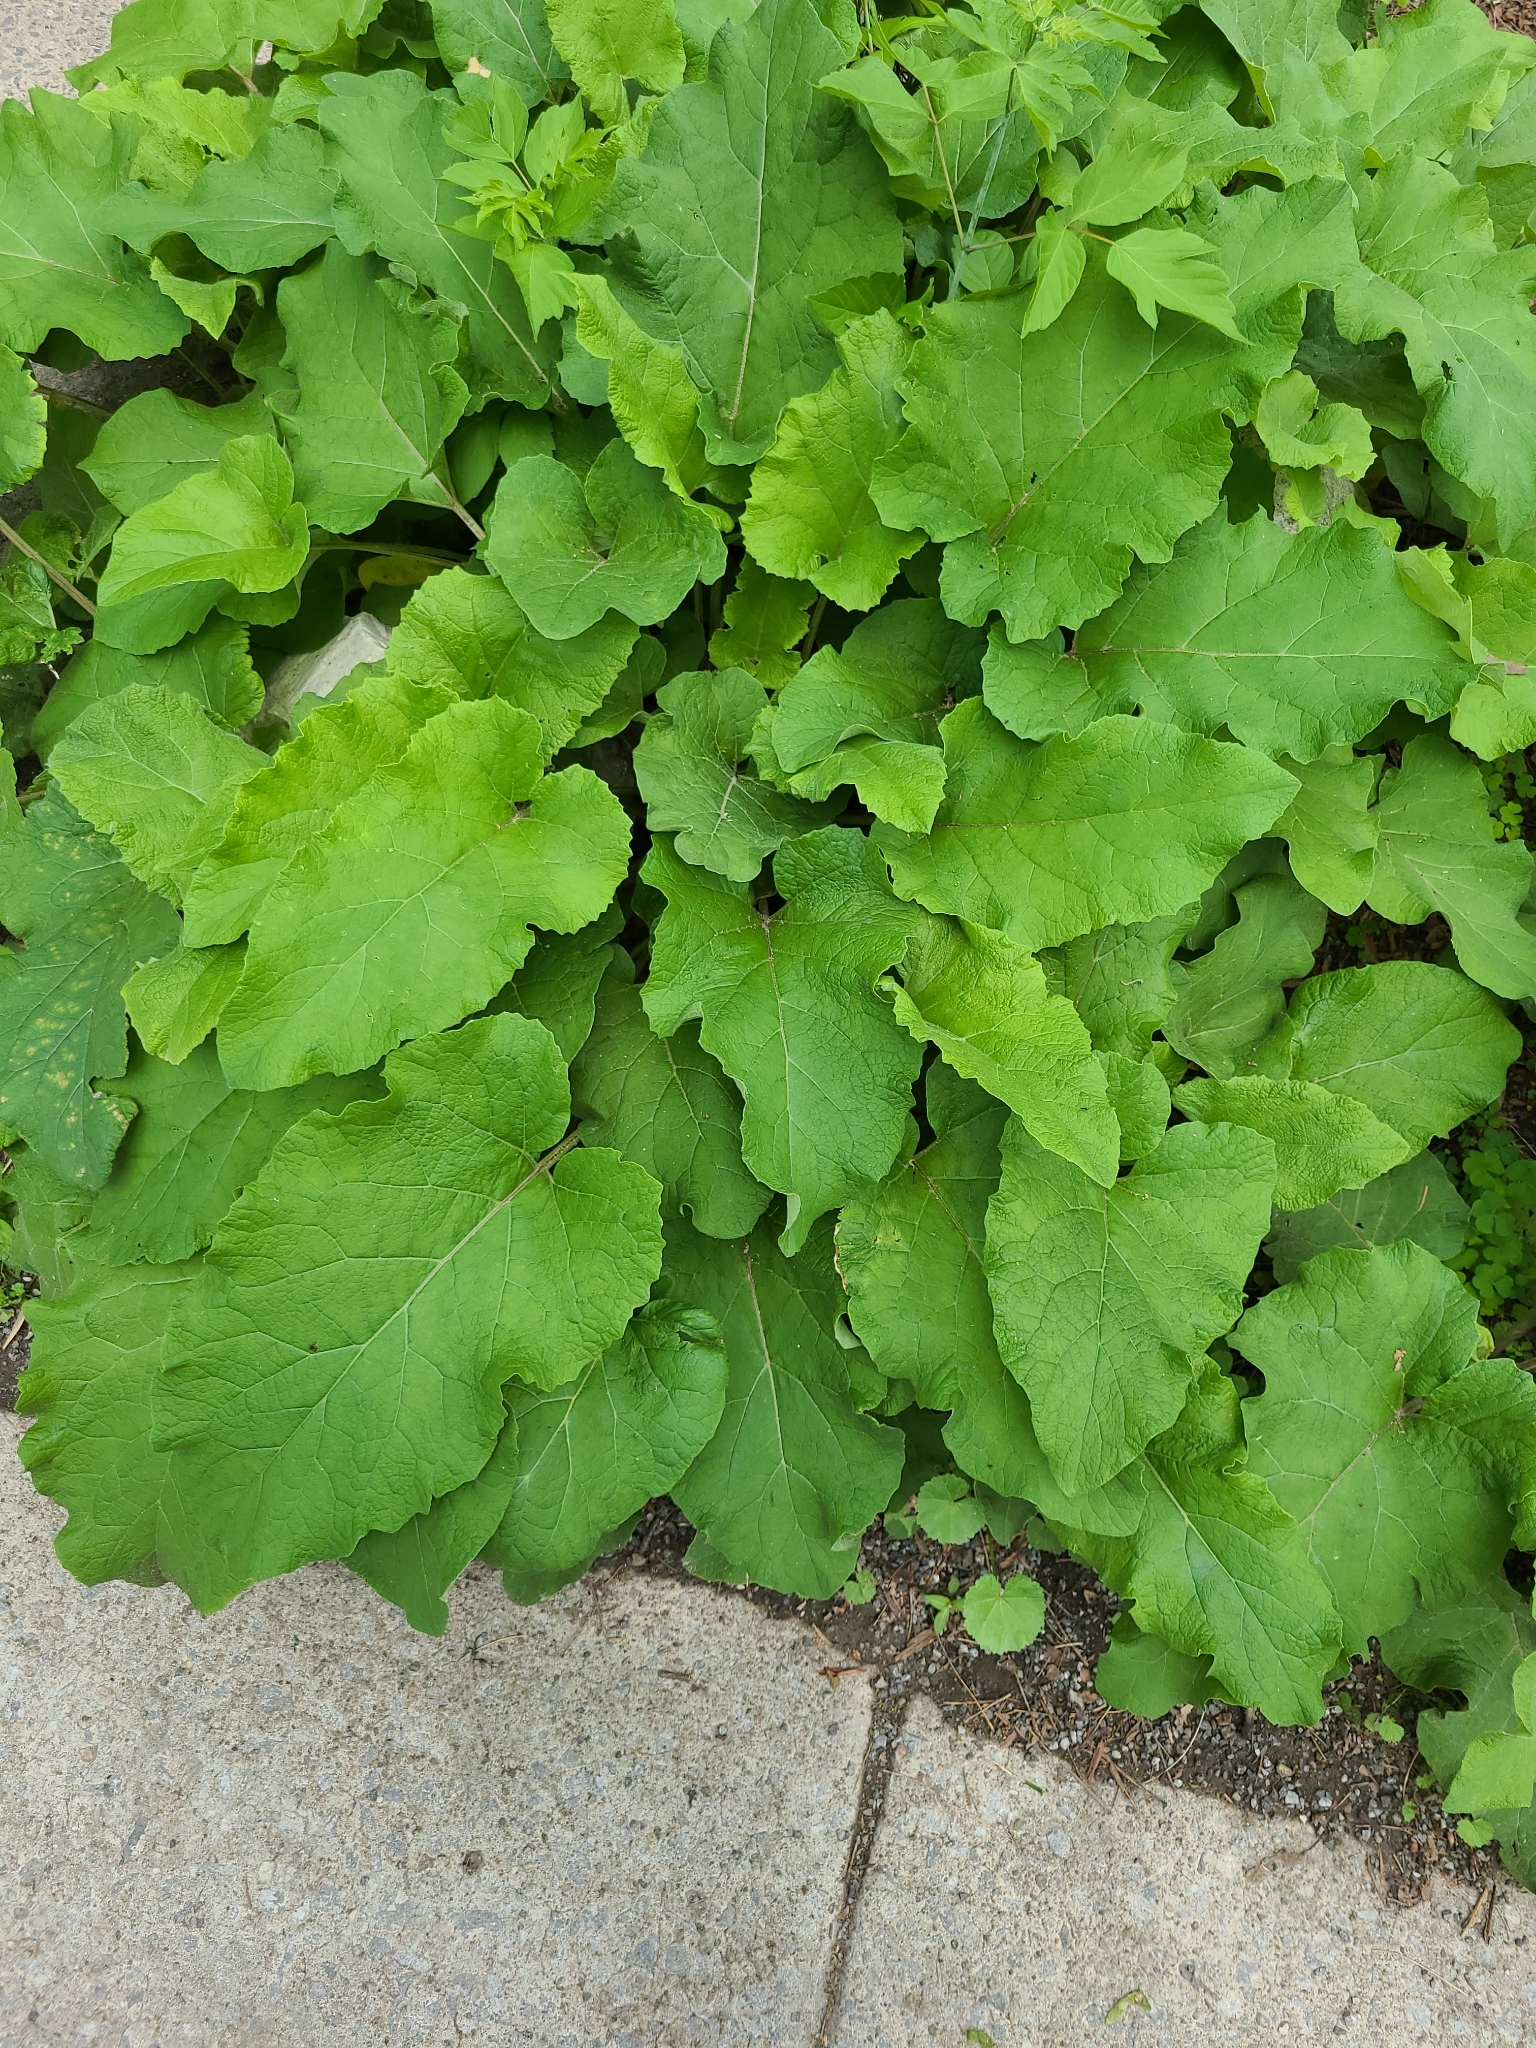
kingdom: Plantae
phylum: Tracheophyta
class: Magnoliopsida
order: Asterales
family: Asteraceae
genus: Arctium
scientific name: Arctium
